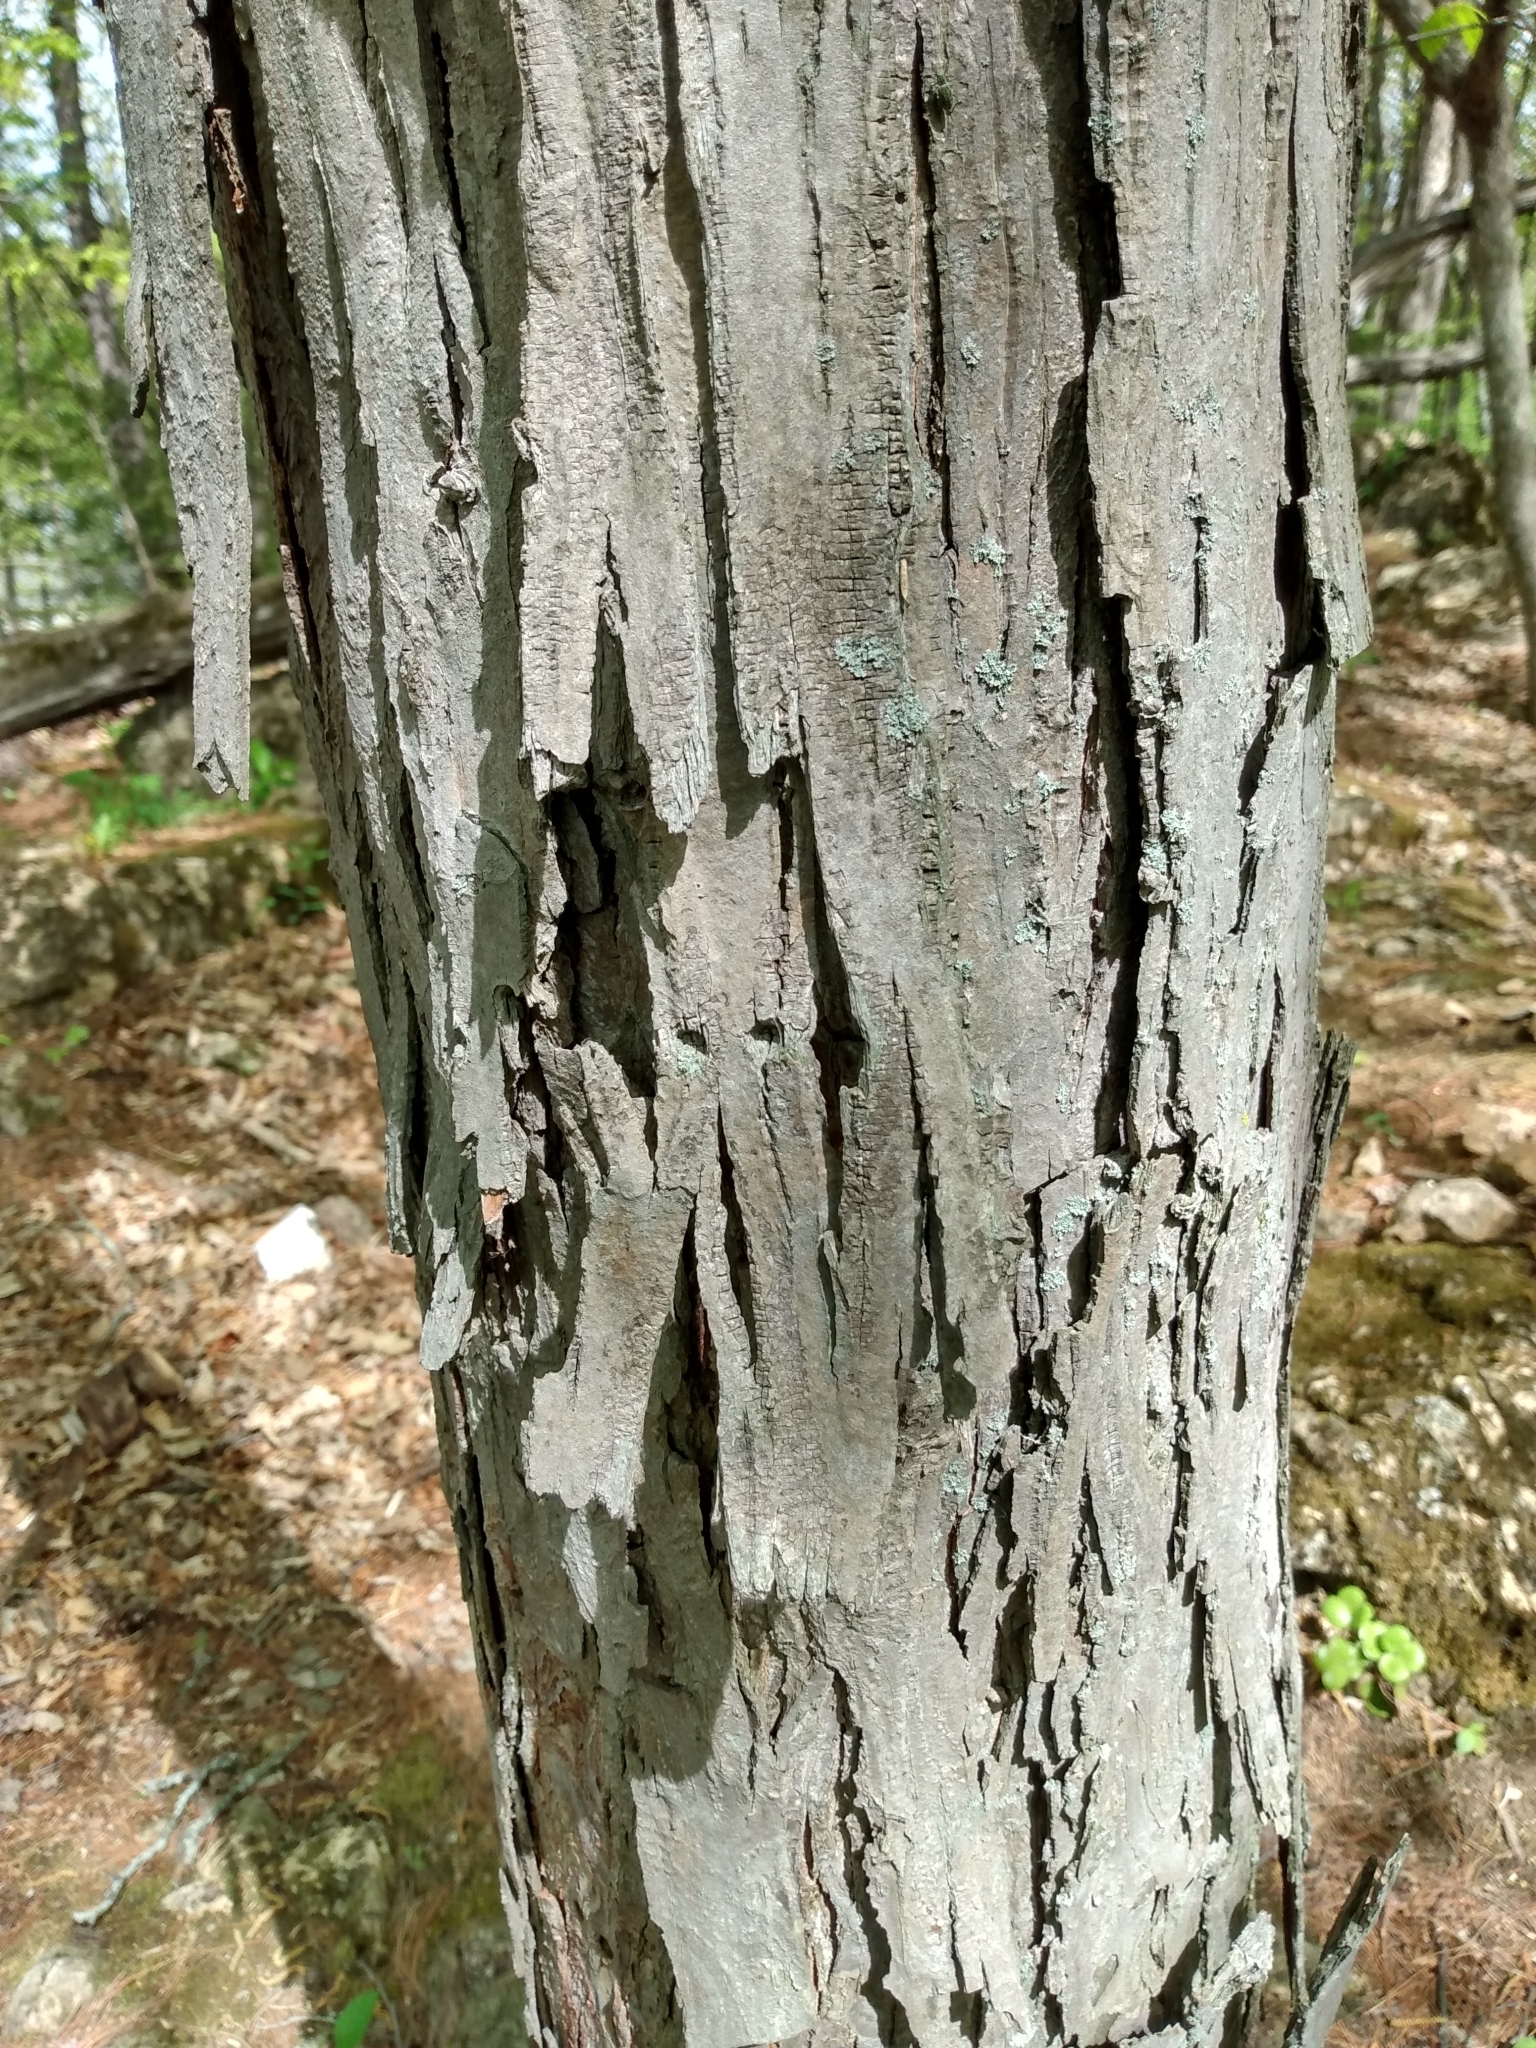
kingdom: Plantae
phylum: Tracheophyta
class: Magnoliopsida
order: Fagales
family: Juglandaceae
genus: Carya
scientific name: Carya ovata
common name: Shagbark hickory
